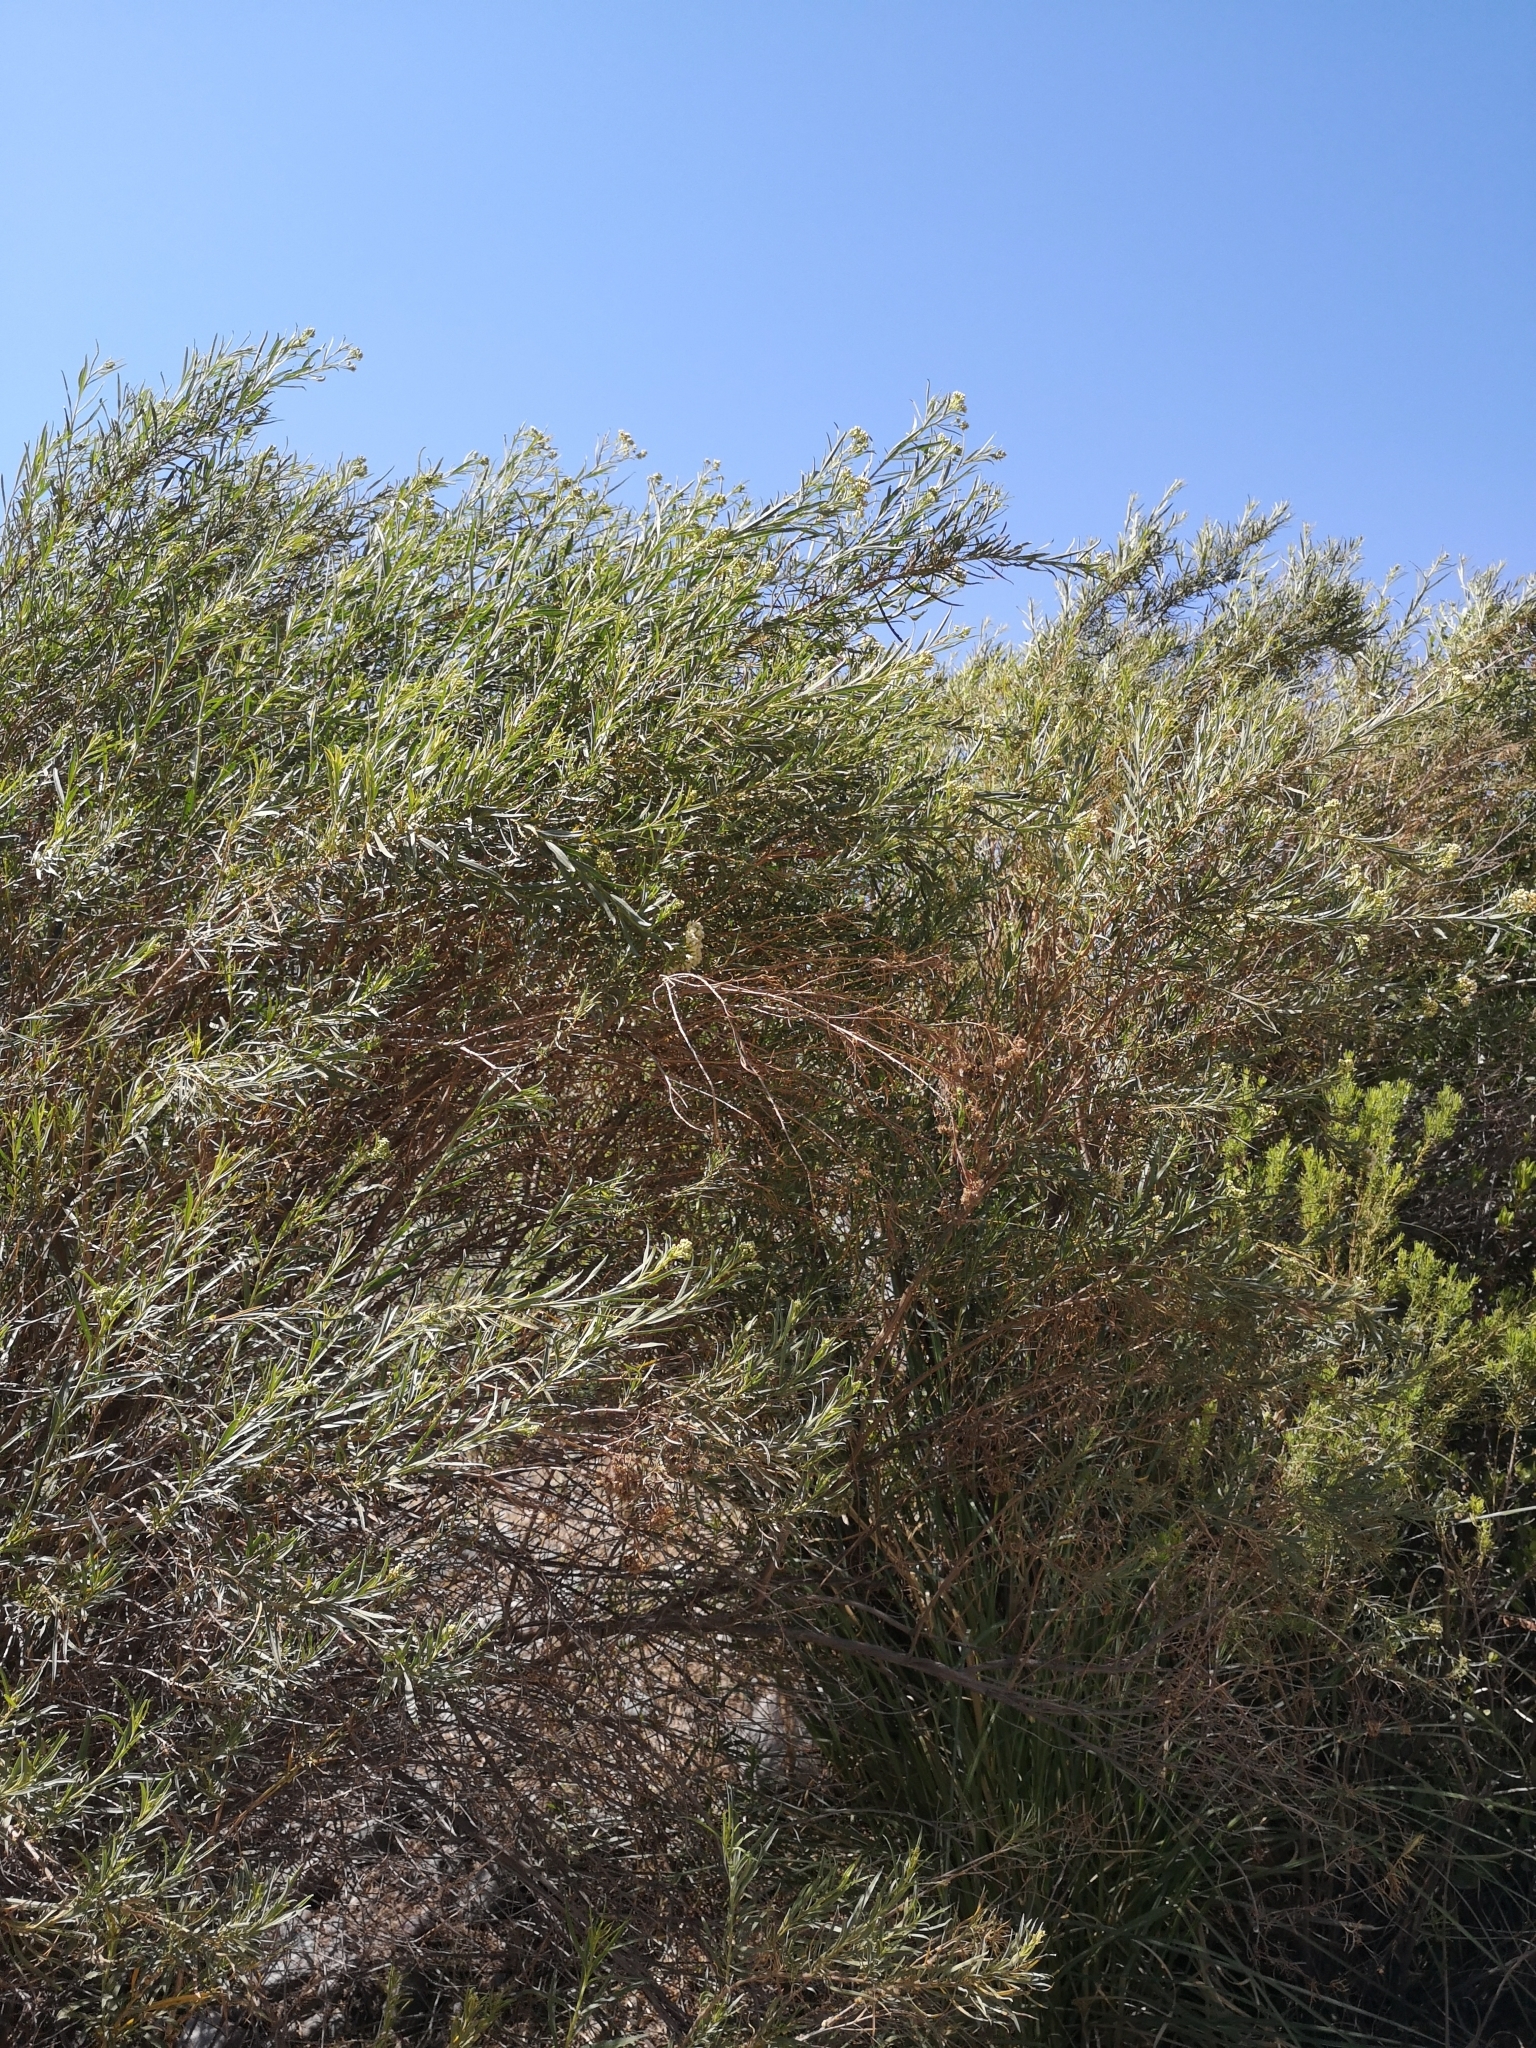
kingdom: Plantae
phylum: Tracheophyta
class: Magnoliopsida
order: Asterales
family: Asteraceae
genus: Baccharis
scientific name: Baccharis salicifolia
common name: Sticky baccharis
